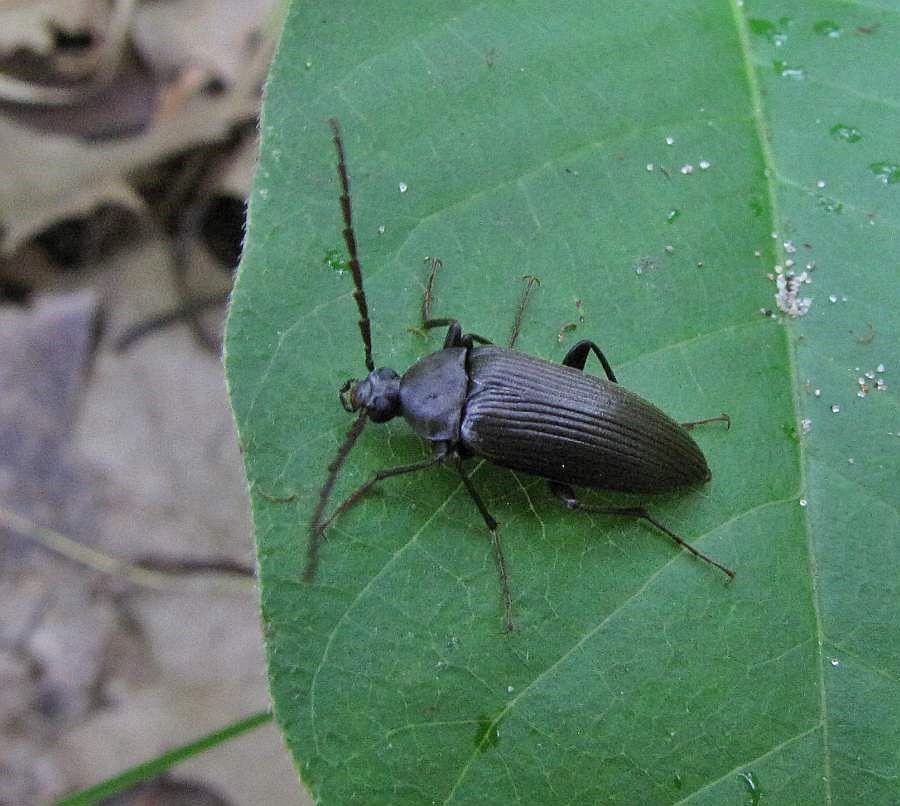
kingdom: Animalia
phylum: Arthropoda
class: Insecta
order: Coleoptera
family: Tenebrionidae
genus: Capnochroa
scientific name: Capnochroa fuliginosa
